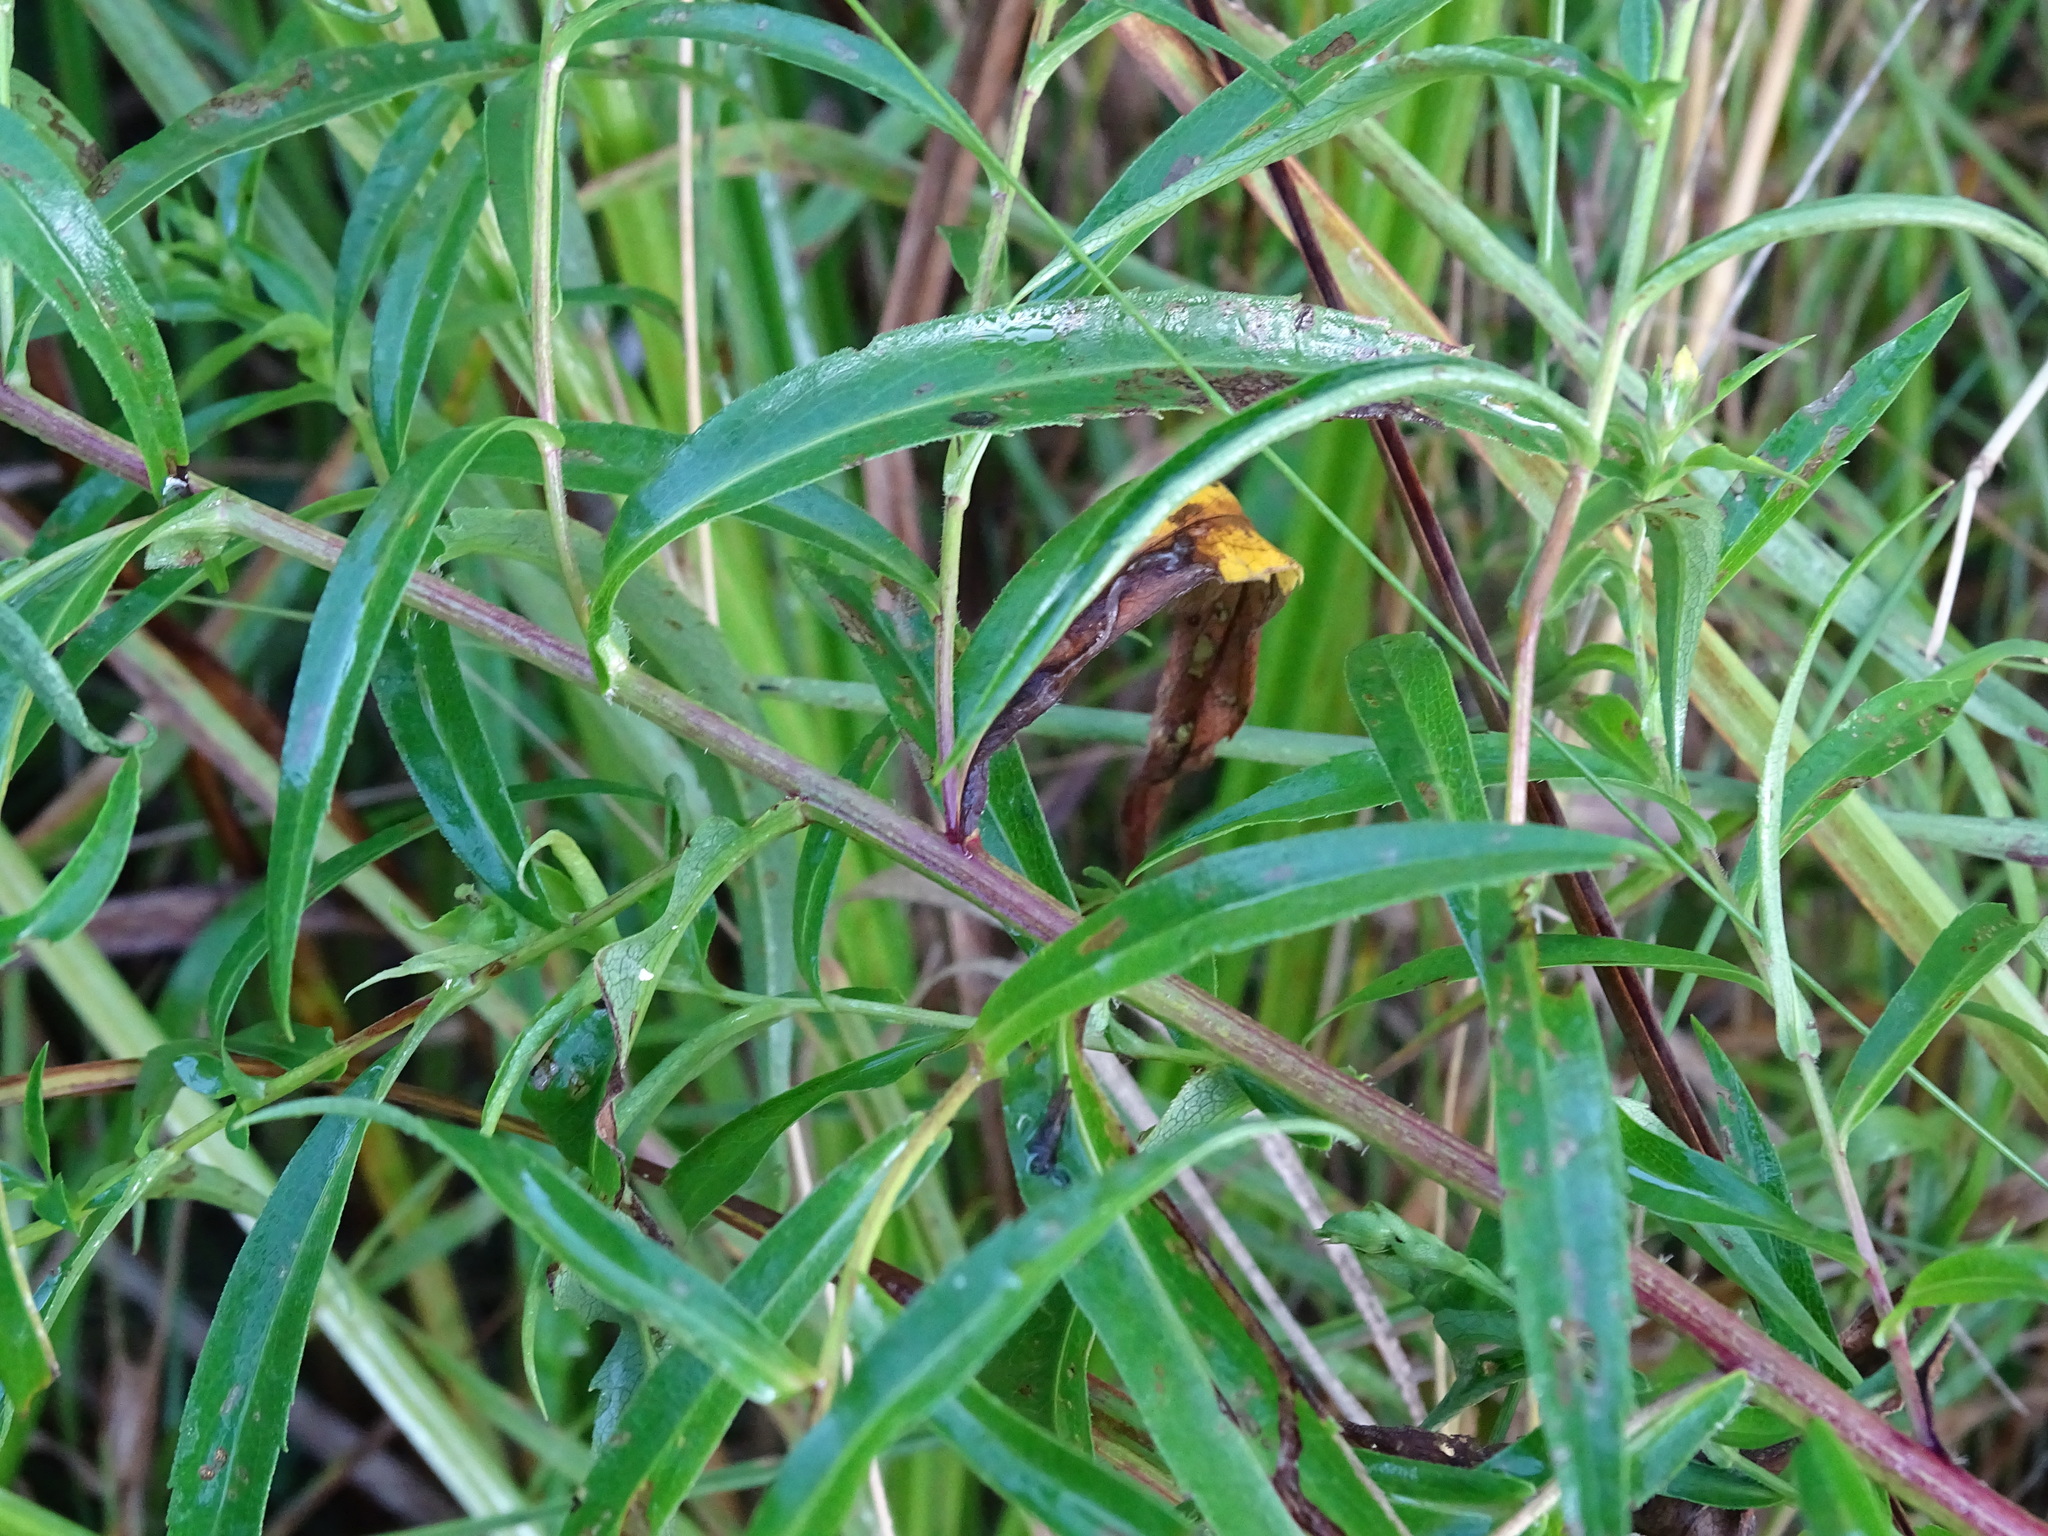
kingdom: Plantae
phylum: Tracheophyta
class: Magnoliopsida
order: Asterales
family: Asteraceae
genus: Symphyotrichum
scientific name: Symphyotrichum lanceolatum
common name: Panicled aster
